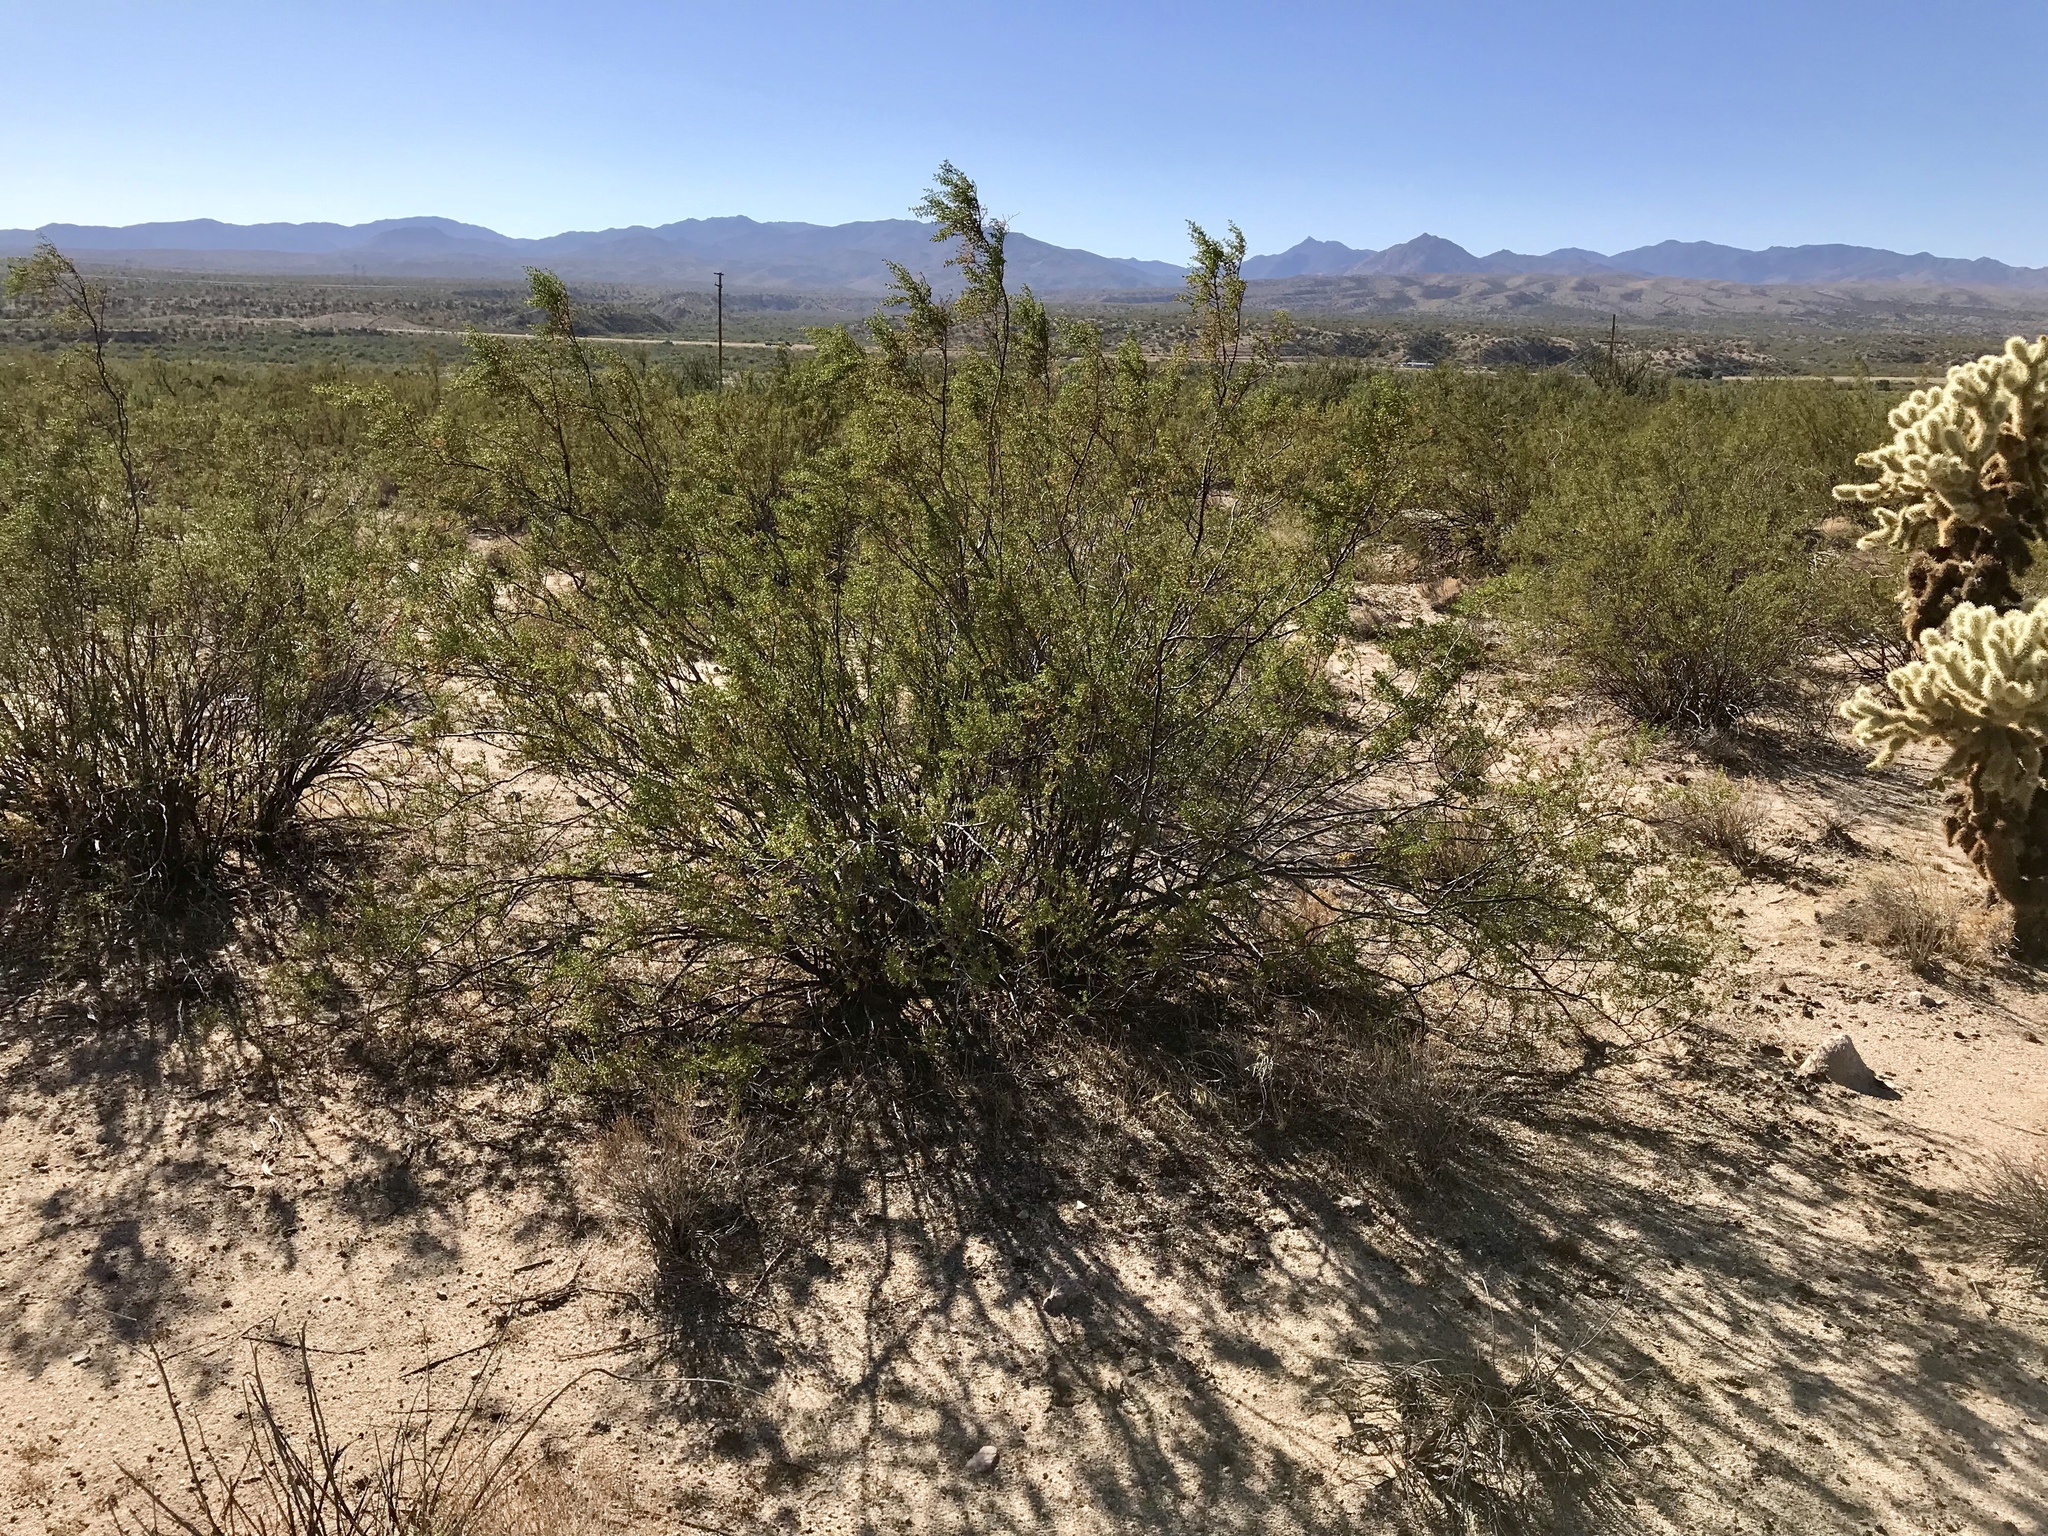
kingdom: Plantae
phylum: Tracheophyta
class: Magnoliopsida
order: Zygophyllales
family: Zygophyllaceae
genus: Larrea
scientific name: Larrea tridentata
